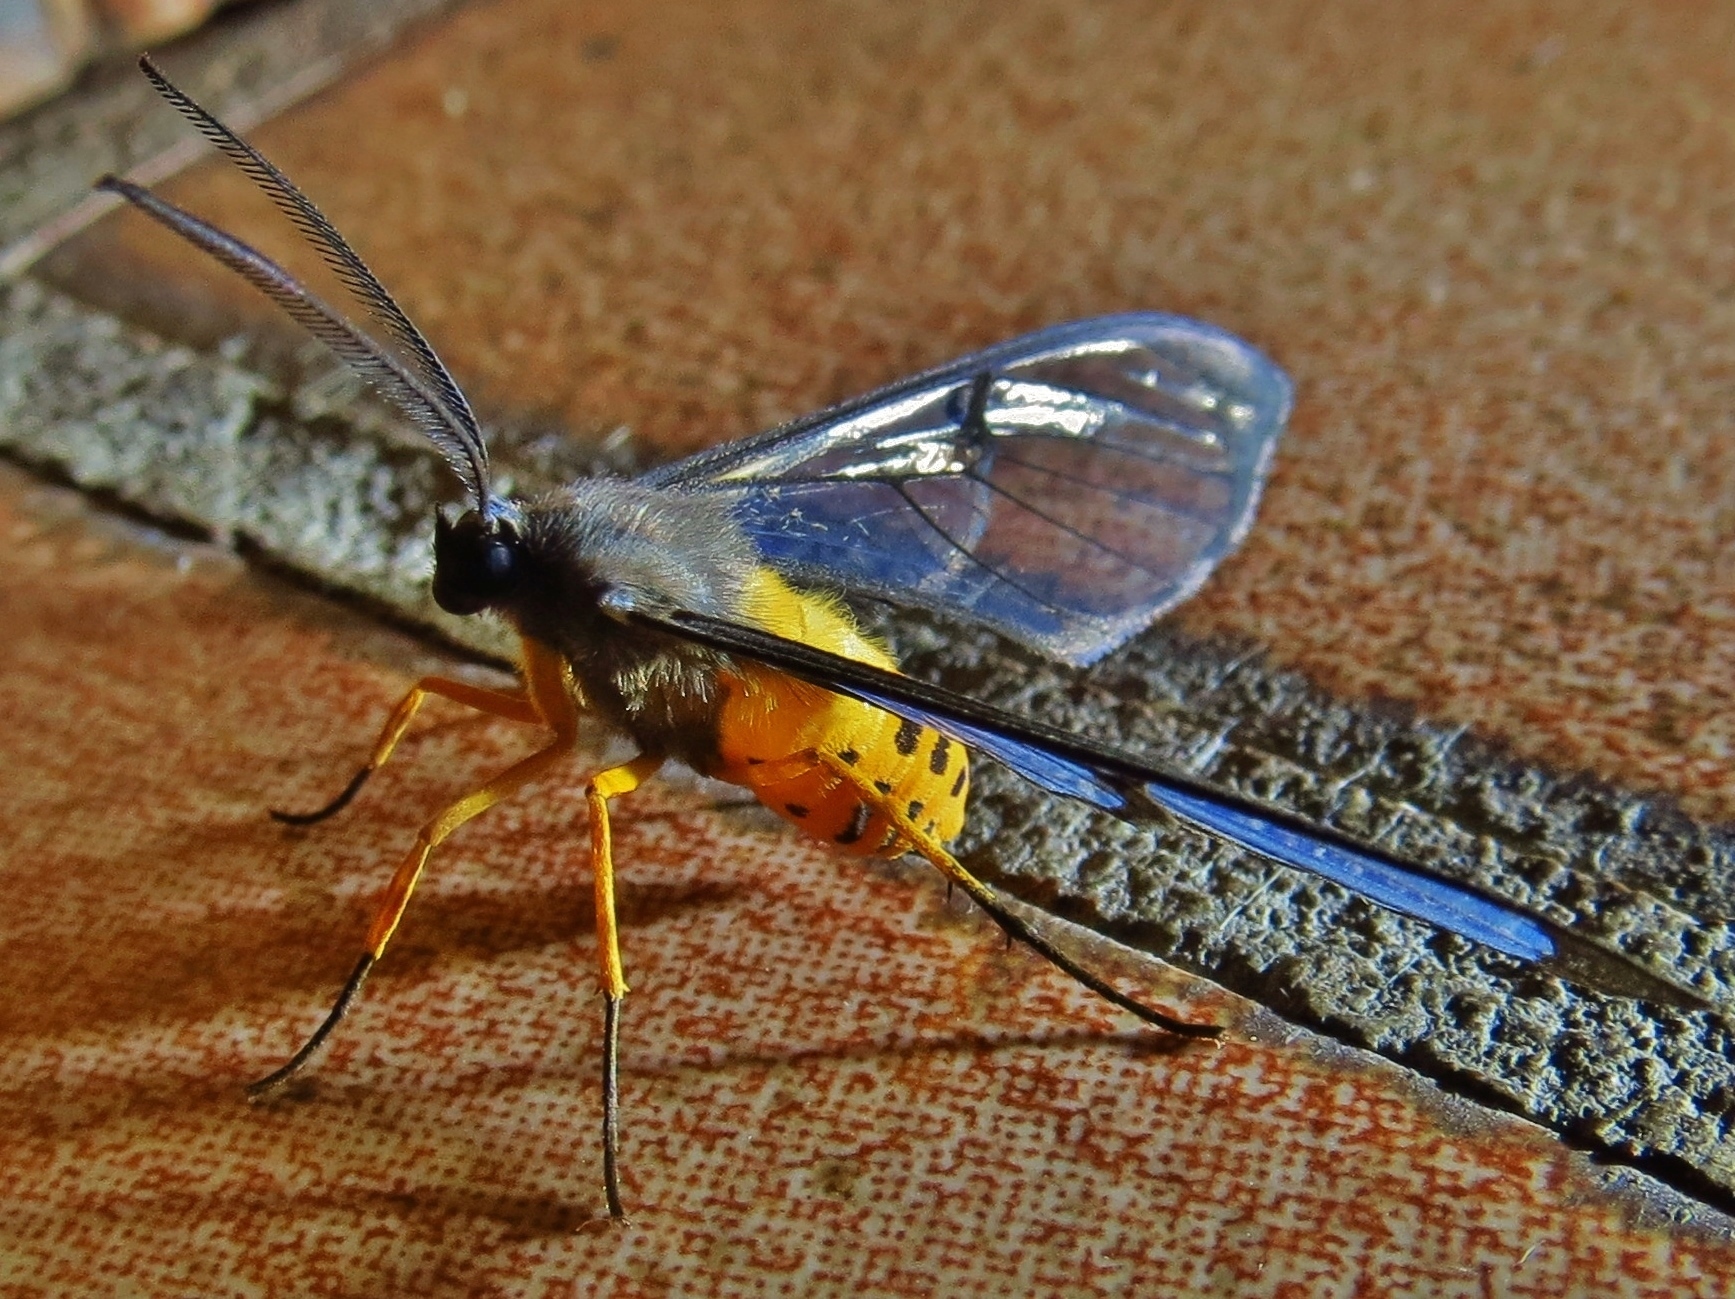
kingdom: Animalia
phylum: Arthropoda
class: Insecta
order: Lepidoptera
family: Erebidae
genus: Mesothen
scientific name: Mesothen montana
